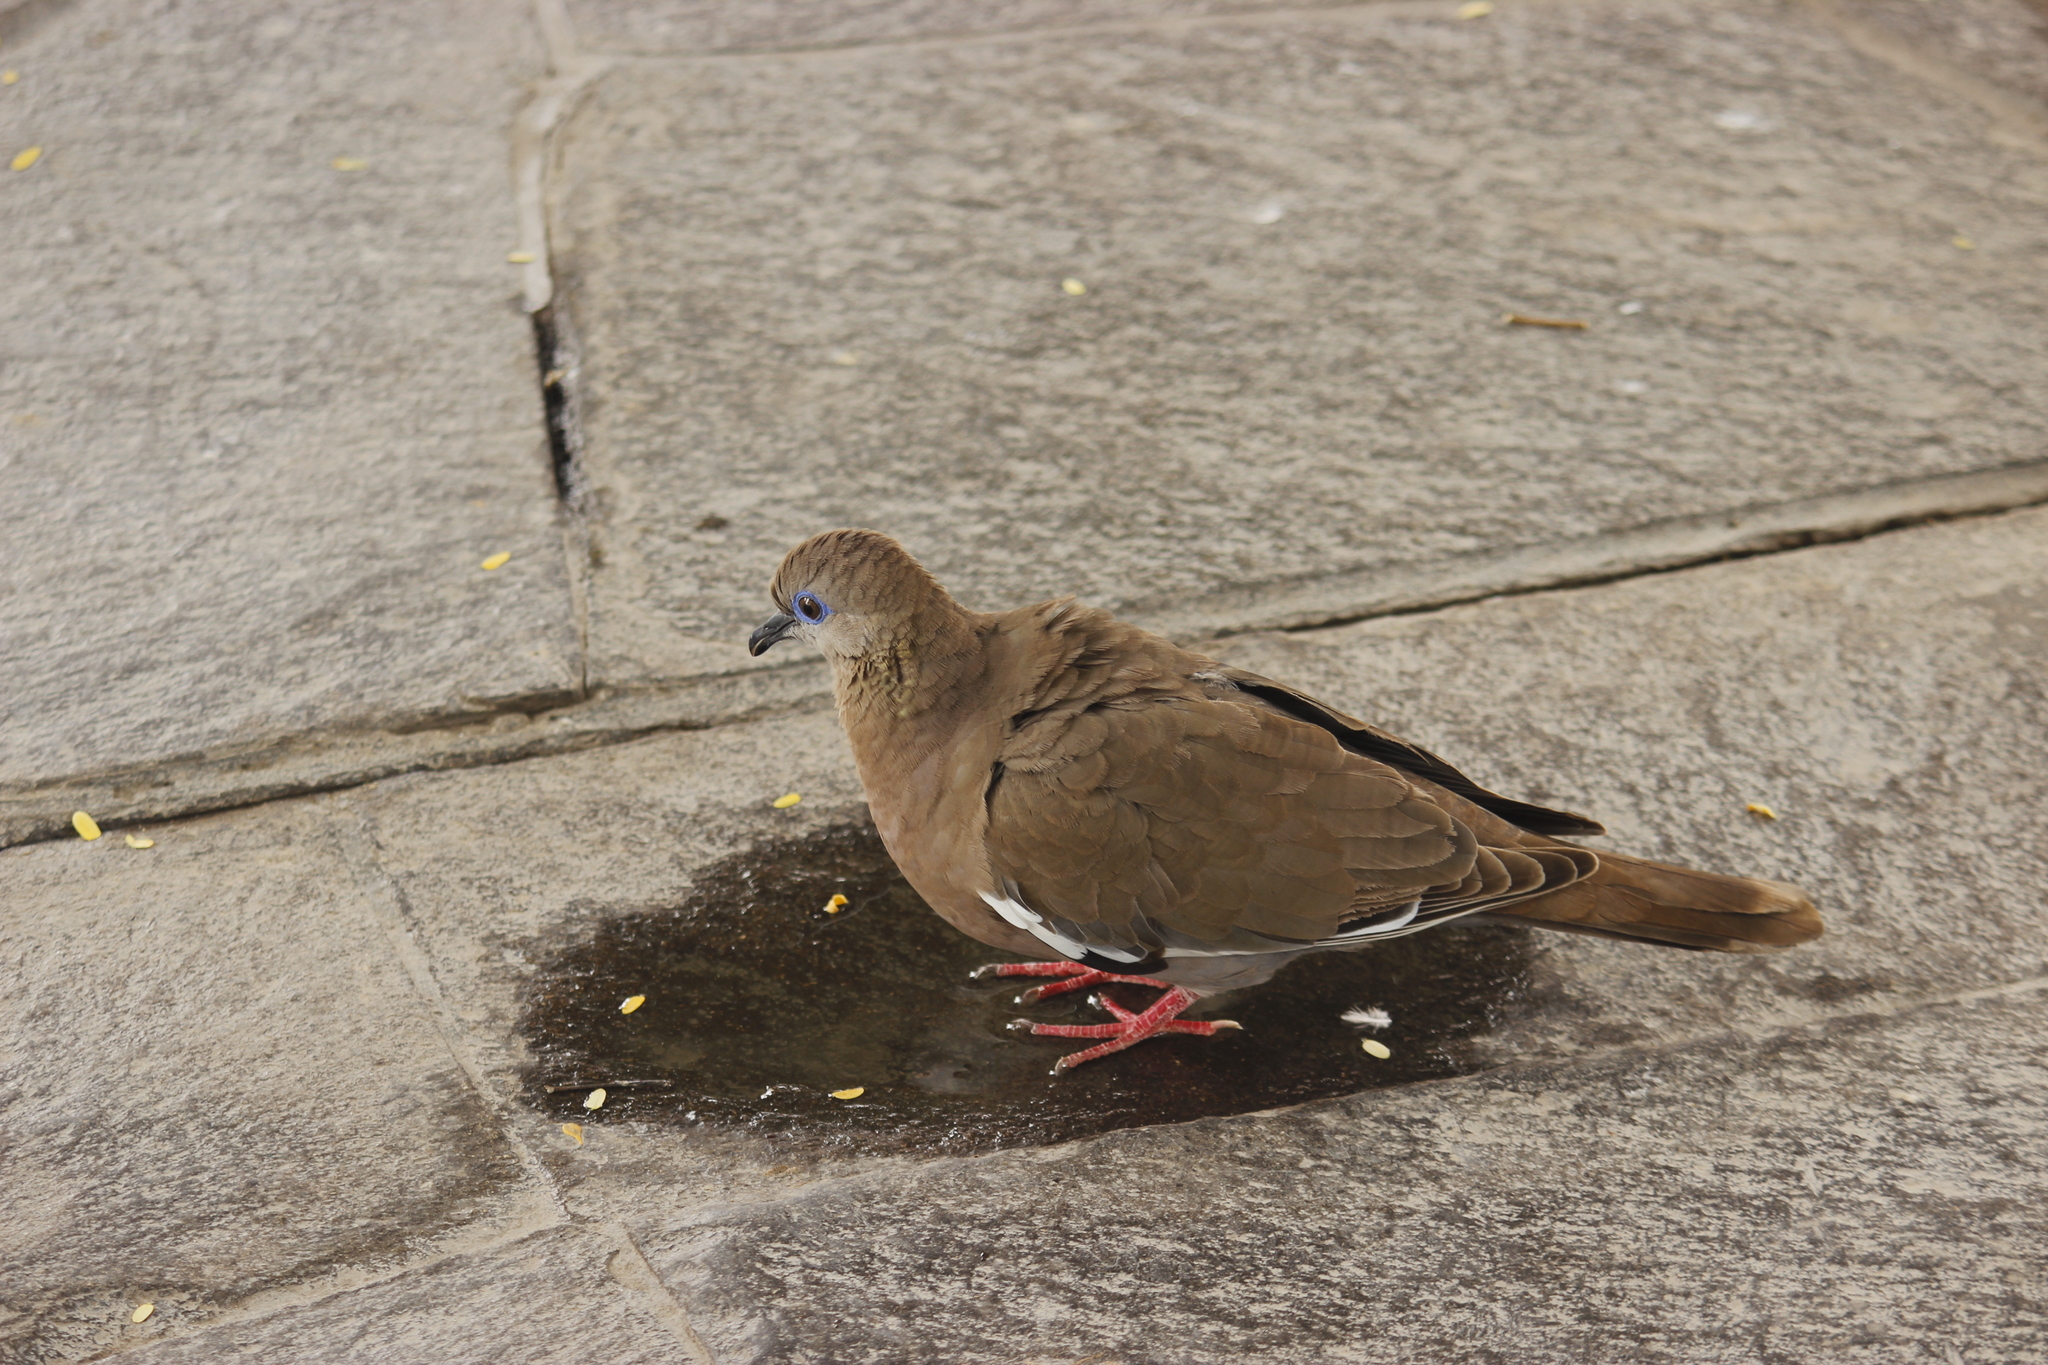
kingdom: Animalia
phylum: Chordata
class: Aves
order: Columbiformes
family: Columbidae
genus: Zenaida
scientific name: Zenaida meloda
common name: West peruvian dove
